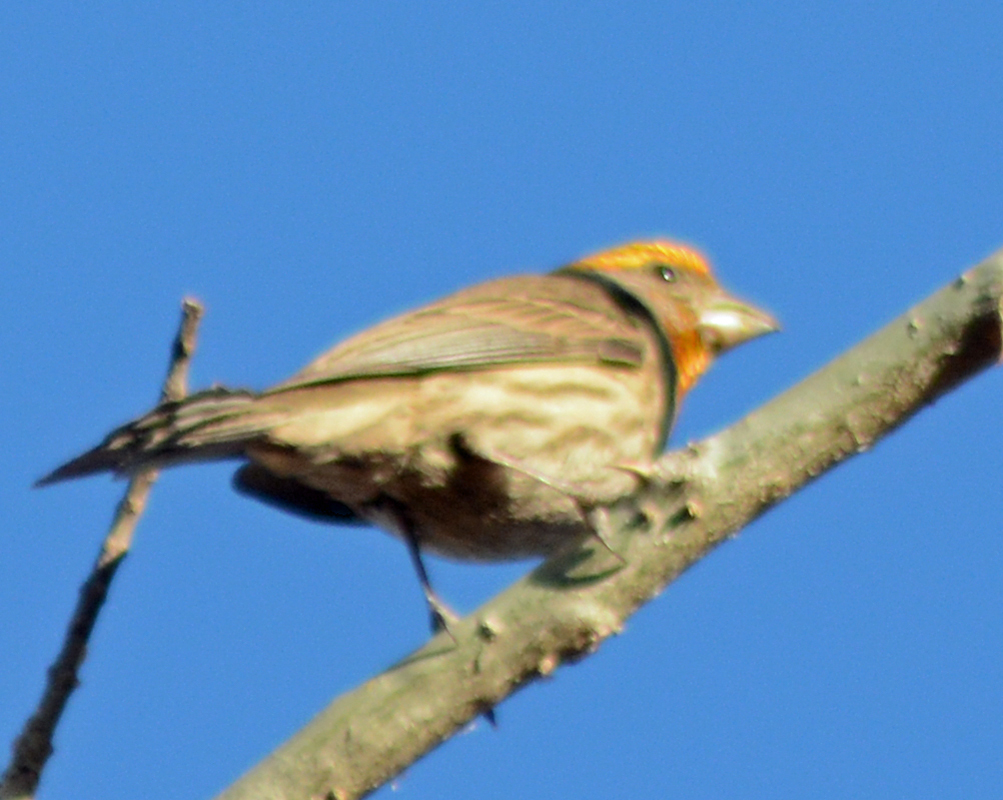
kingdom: Animalia
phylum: Chordata
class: Aves
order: Passeriformes
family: Fringillidae
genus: Haemorhous
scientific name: Haemorhous mexicanus
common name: House finch
